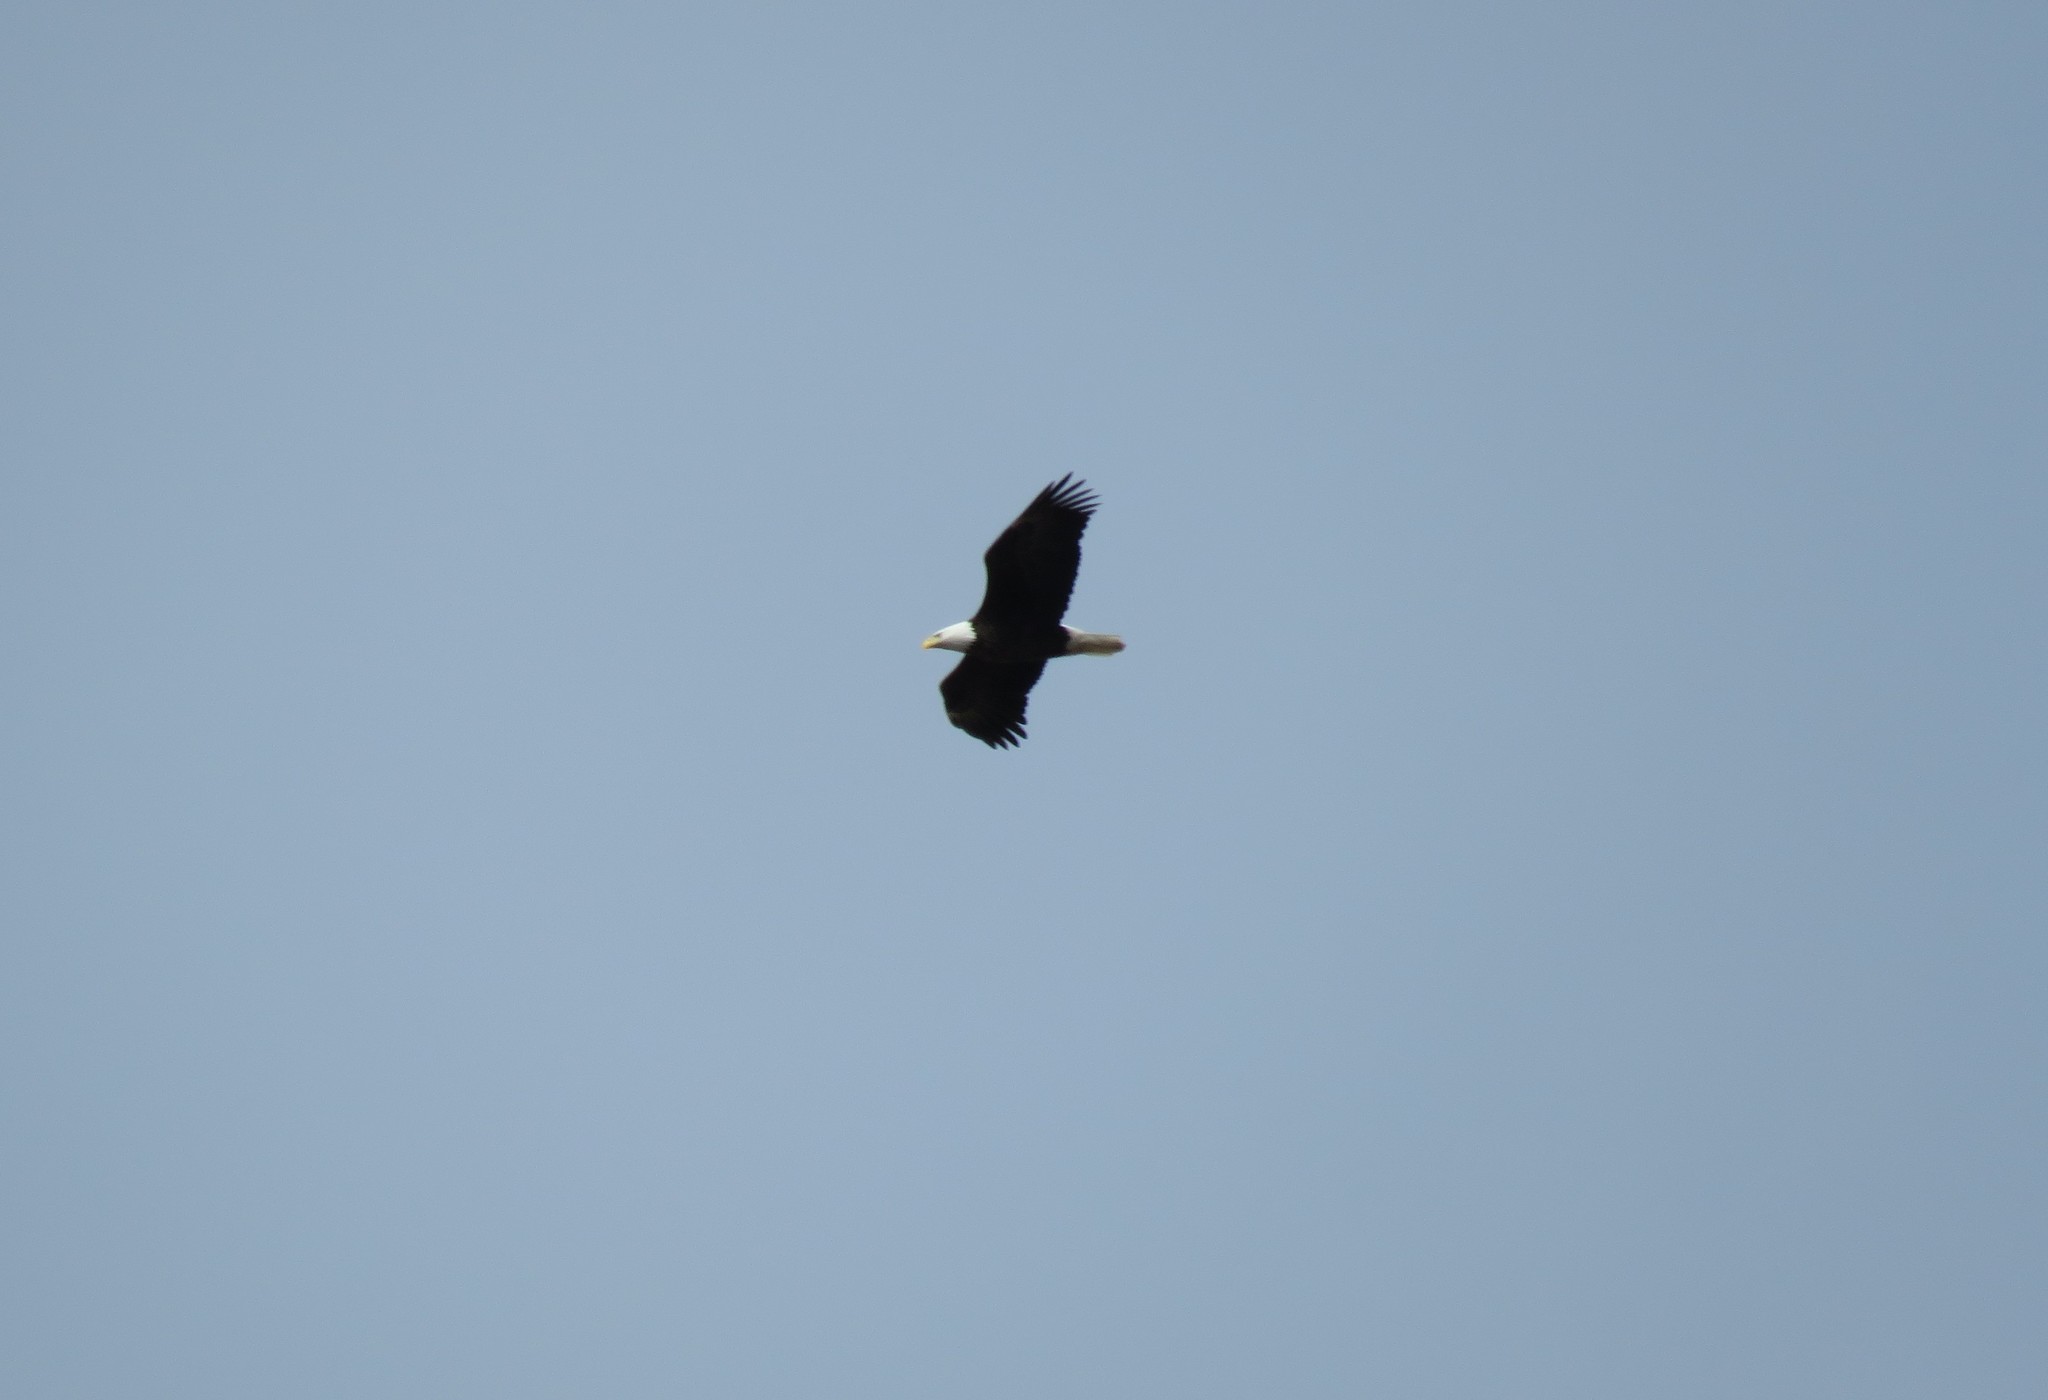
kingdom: Animalia
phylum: Chordata
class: Aves
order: Accipitriformes
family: Accipitridae
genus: Haliaeetus
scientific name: Haliaeetus leucocephalus
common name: Bald eagle
